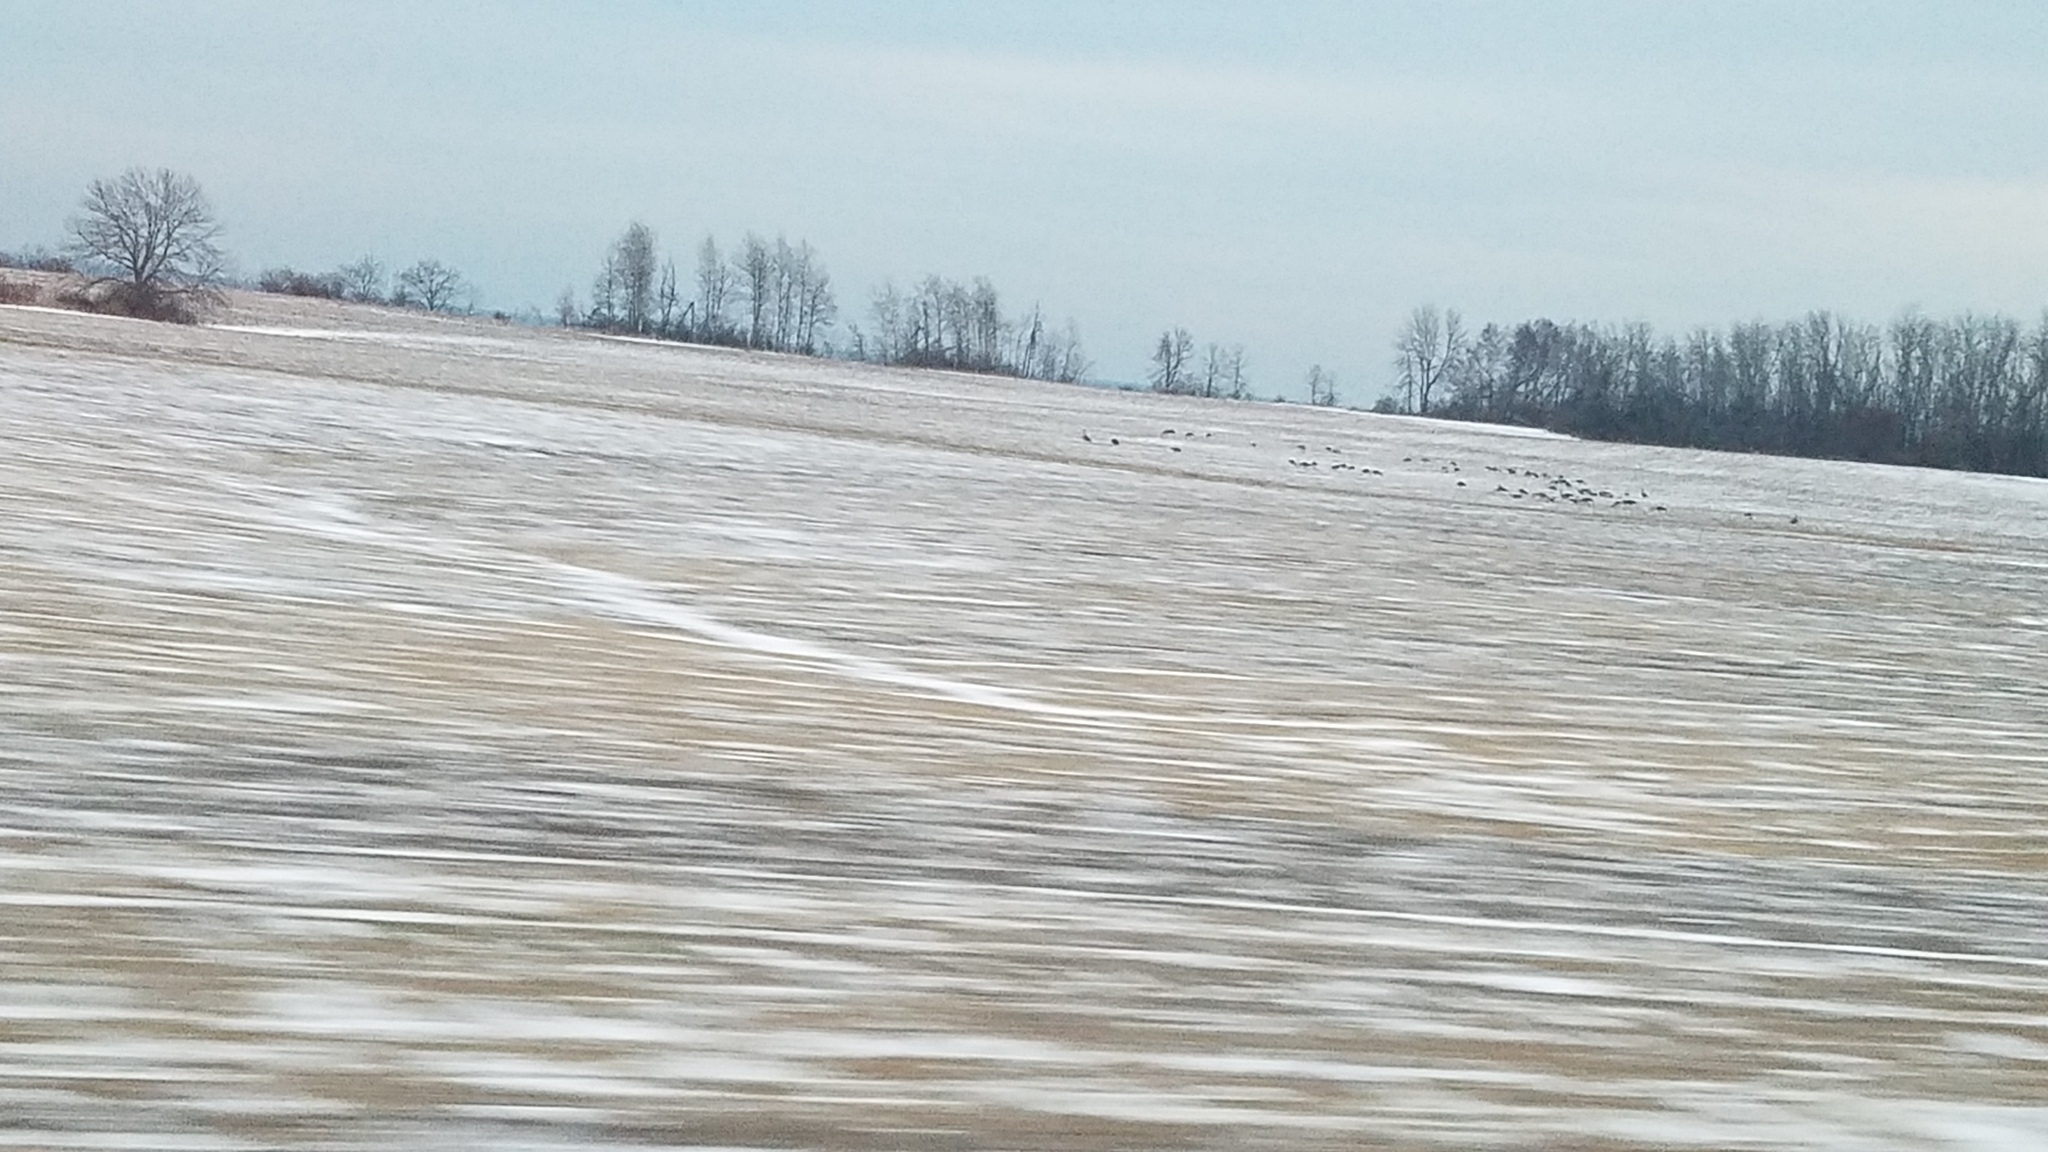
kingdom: Animalia
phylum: Chordata
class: Aves
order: Anseriformes
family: Anatidae
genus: Branta
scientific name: Branta canadensis
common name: Canada goose
